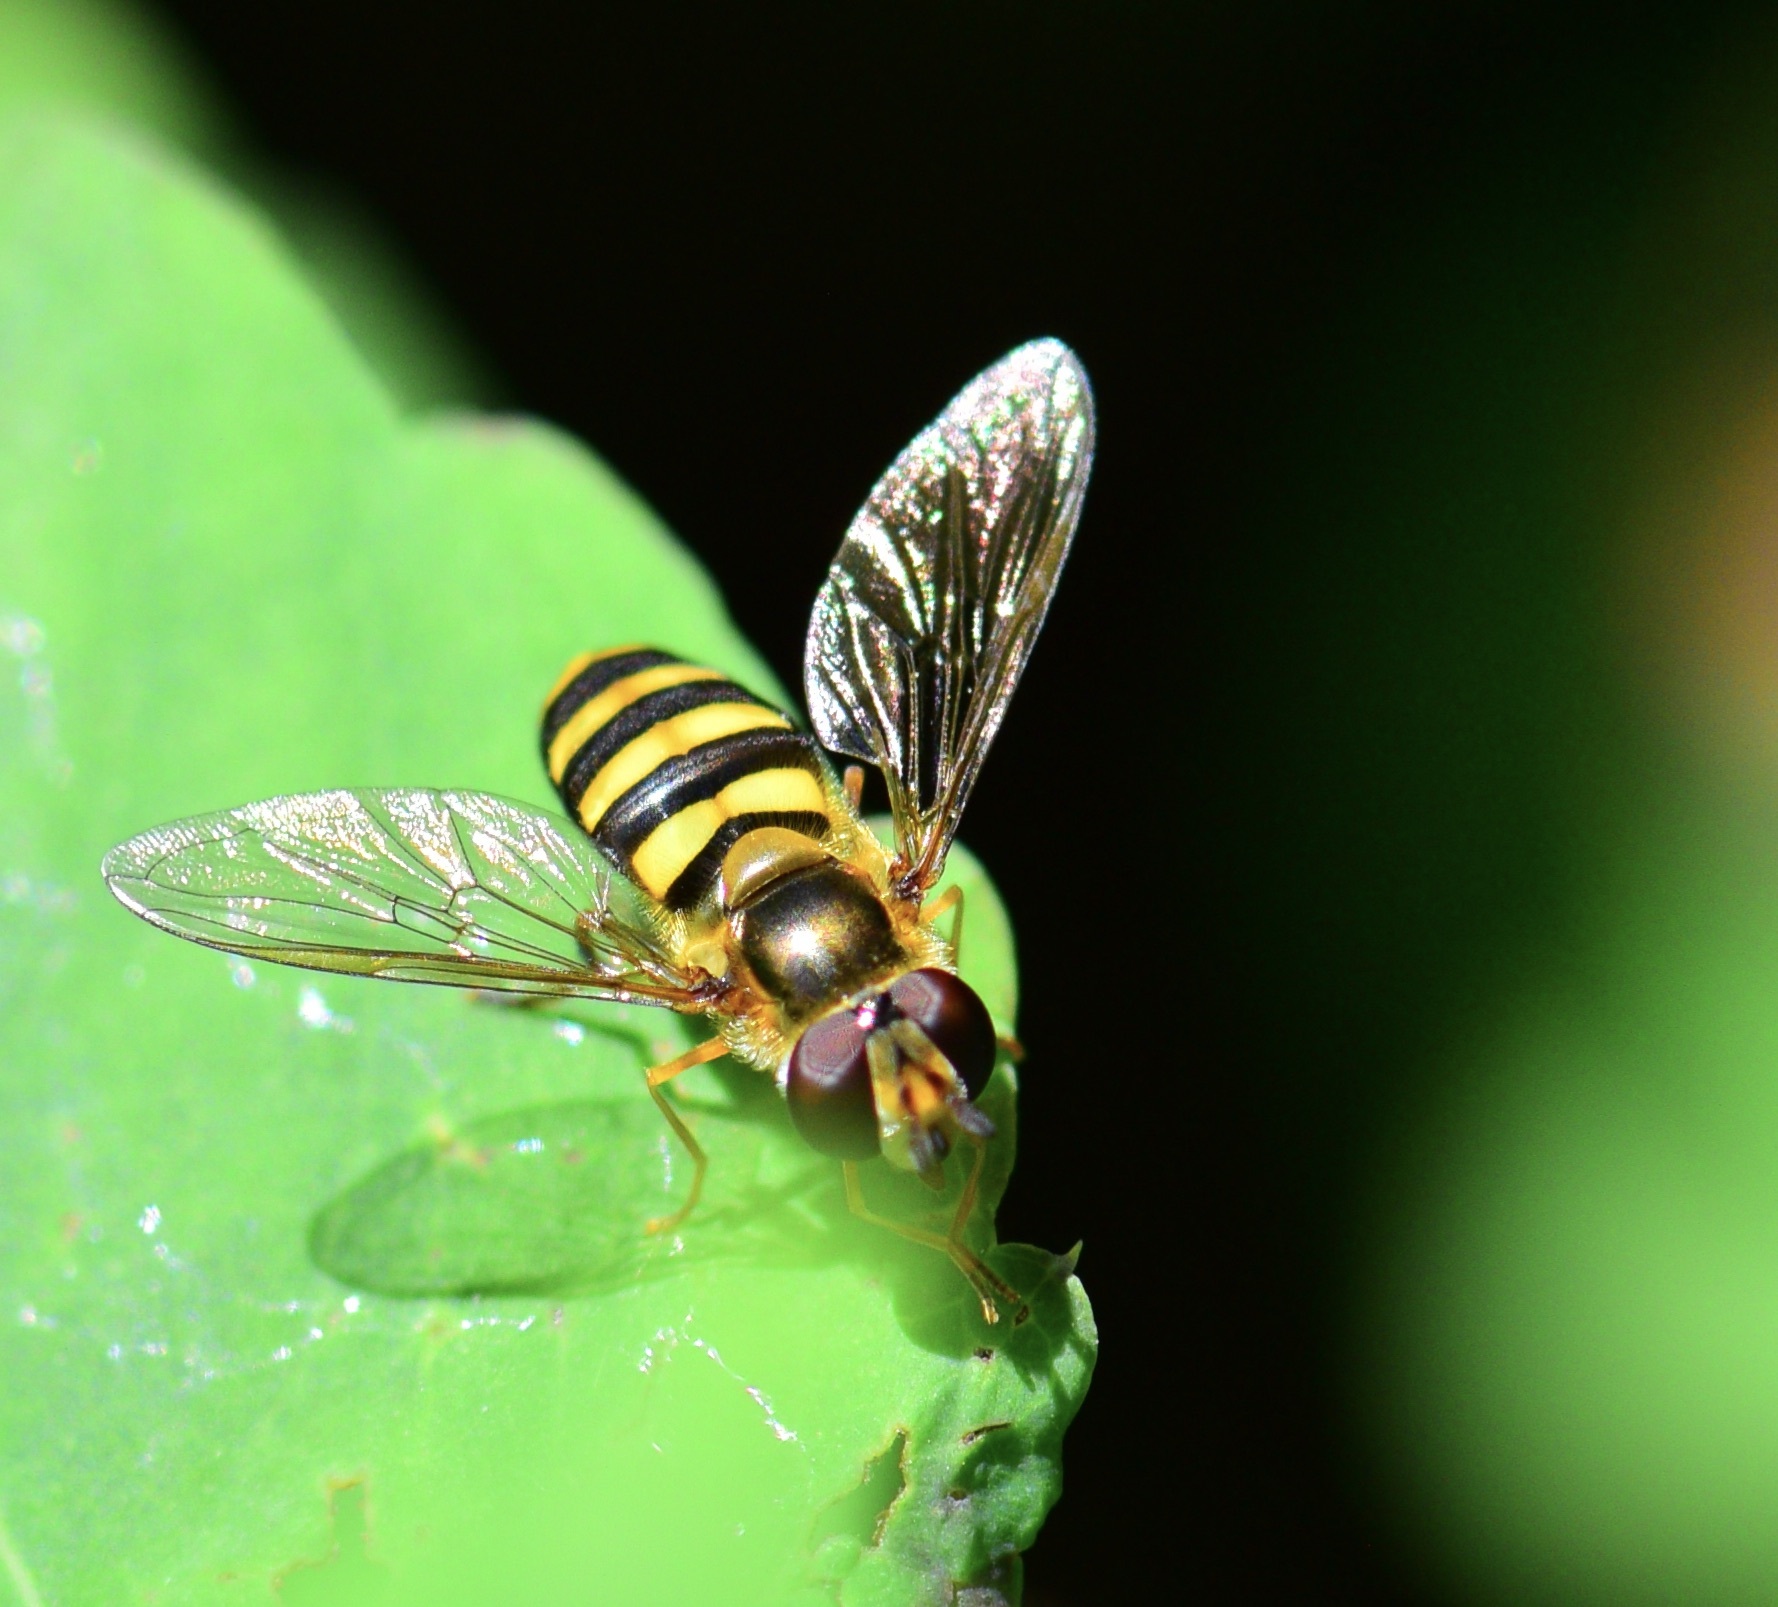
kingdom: Animalia
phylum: Arthropoda
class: Insecta
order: Diptera
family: Syrphidae
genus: Eupeodes
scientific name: Eupeodes
